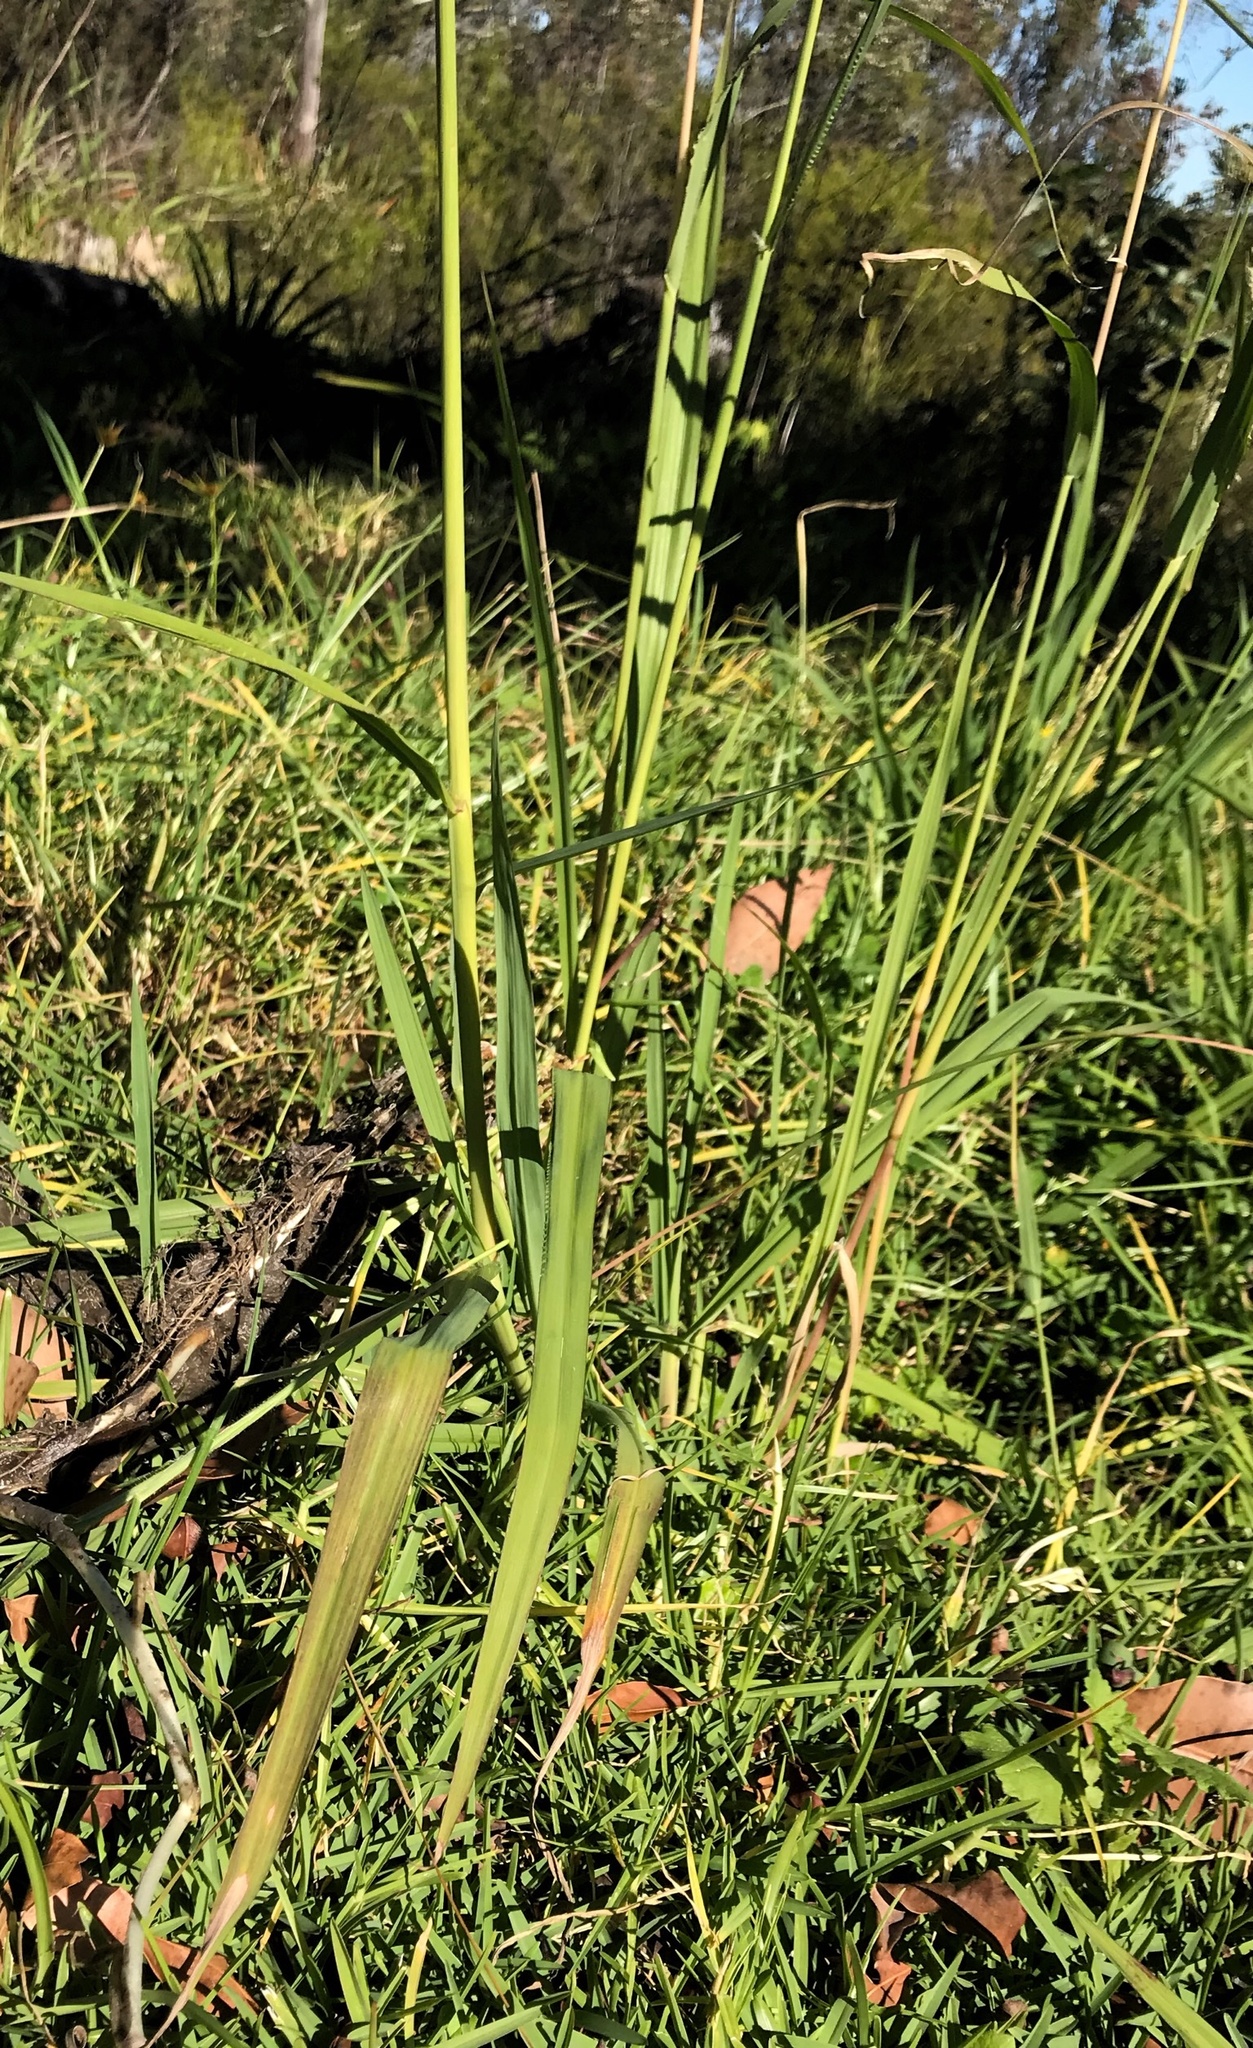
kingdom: Plantae
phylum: Tracheophyta
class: Liliopsida
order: Poales
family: Poaceae
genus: Paspalum
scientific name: Paspalum dilatatum
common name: Dallisgrass
